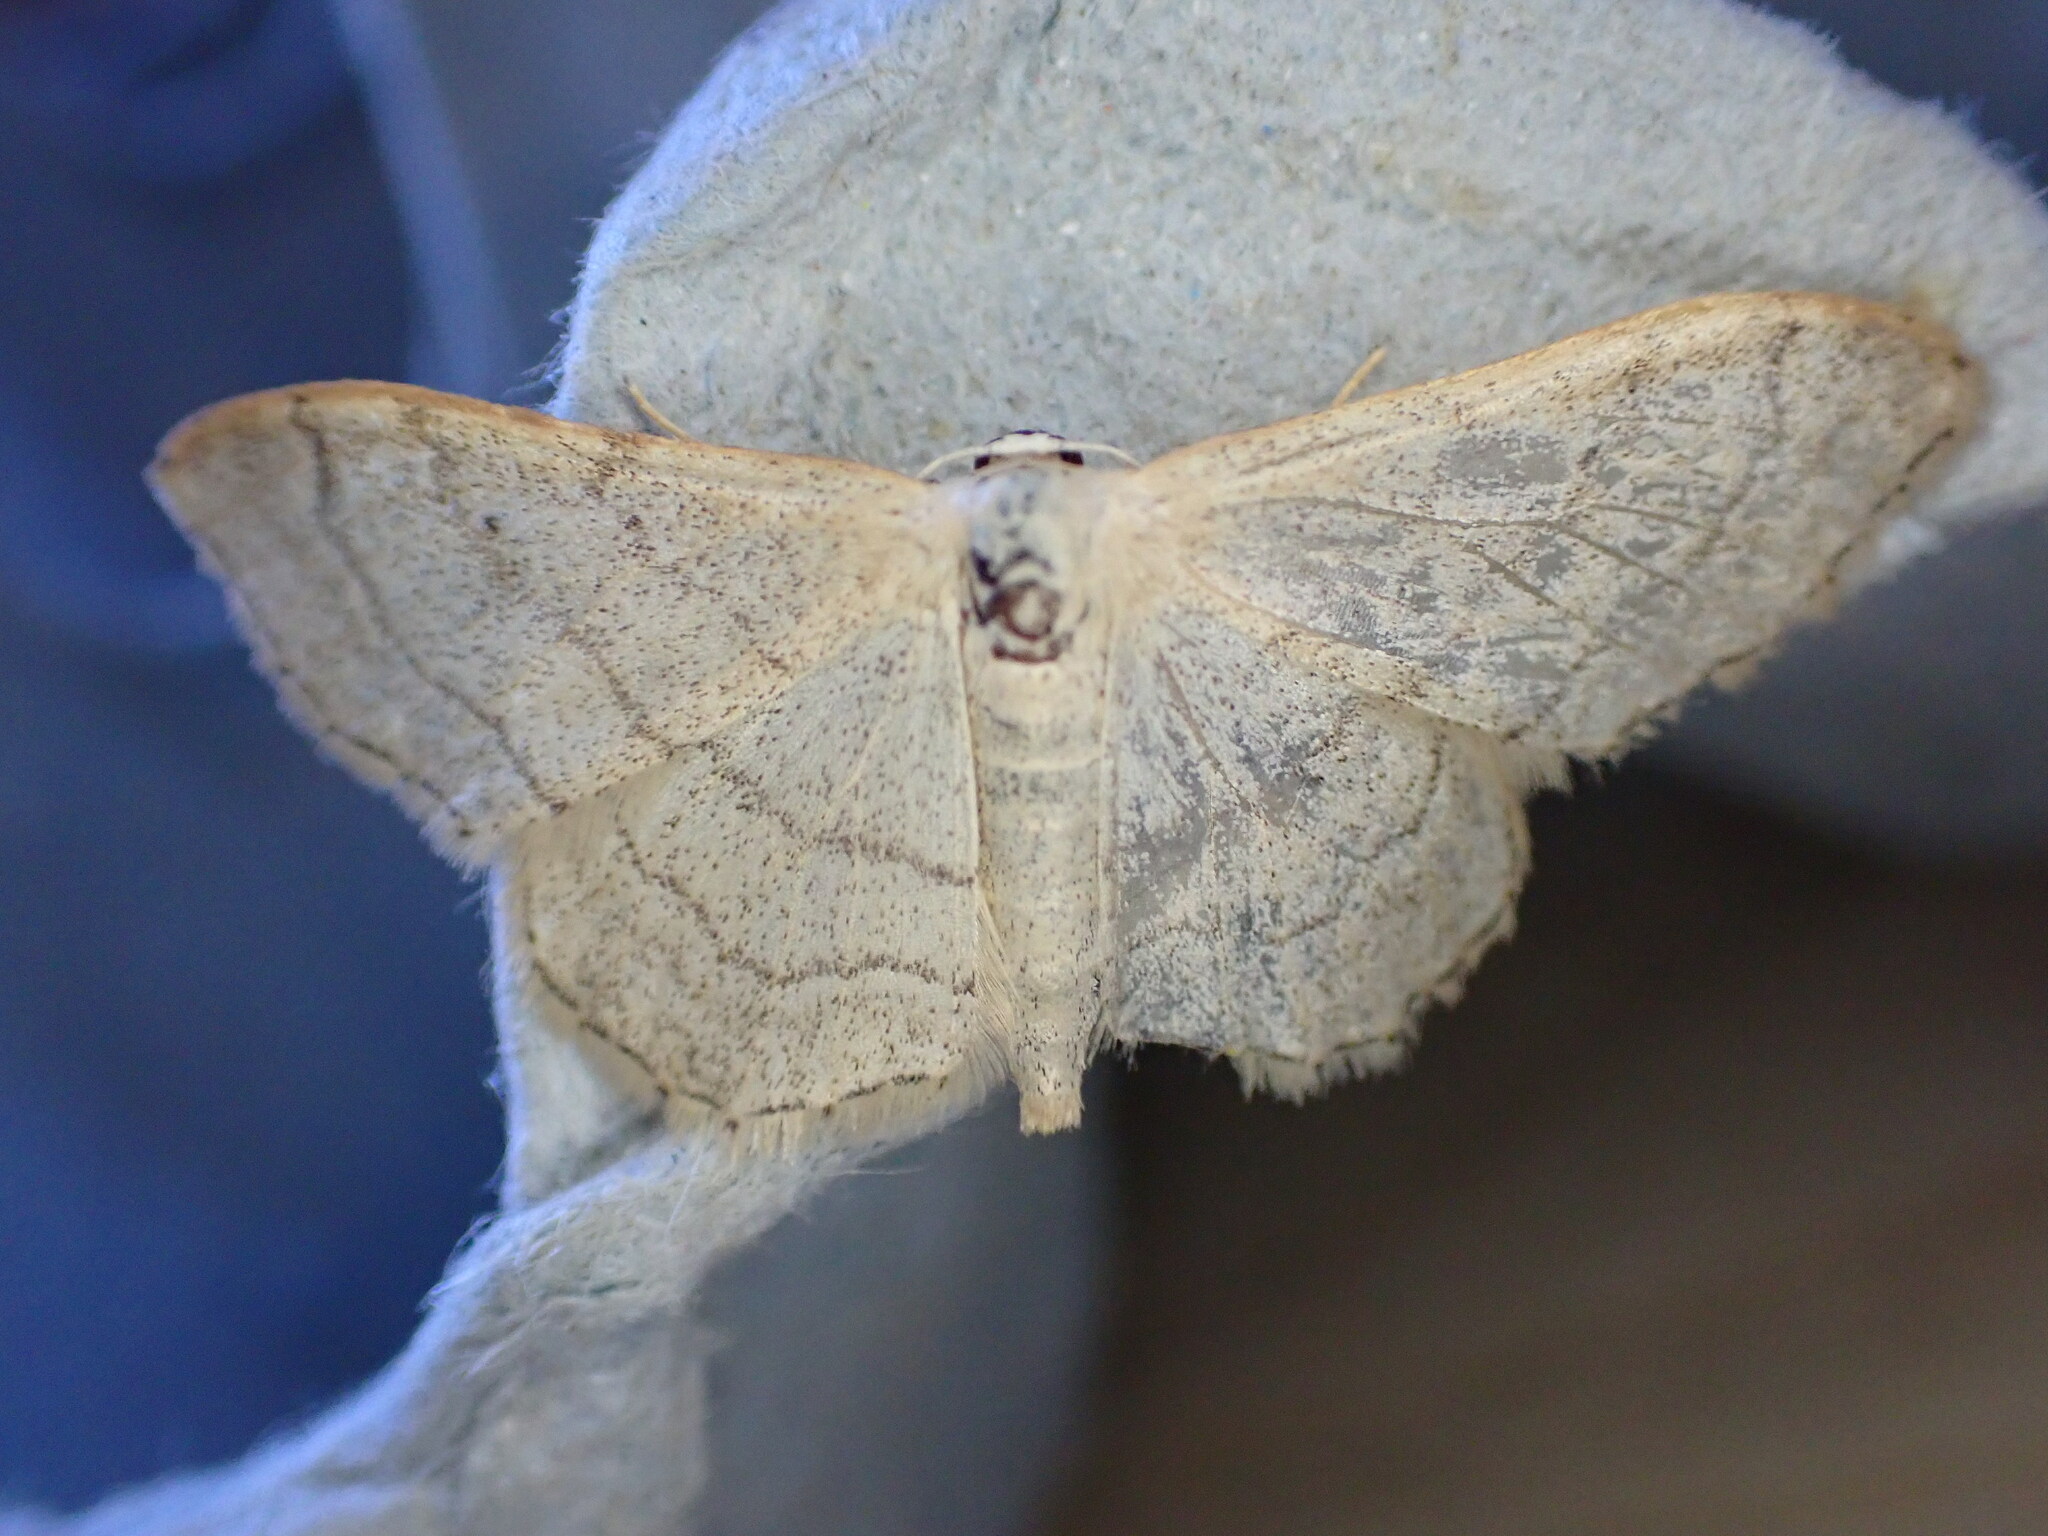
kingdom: Animalia
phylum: Arthropoda
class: Insecta
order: Lepidoptera
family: Geometridae
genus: Idaea
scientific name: Idaea aversata
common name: Riband wave
